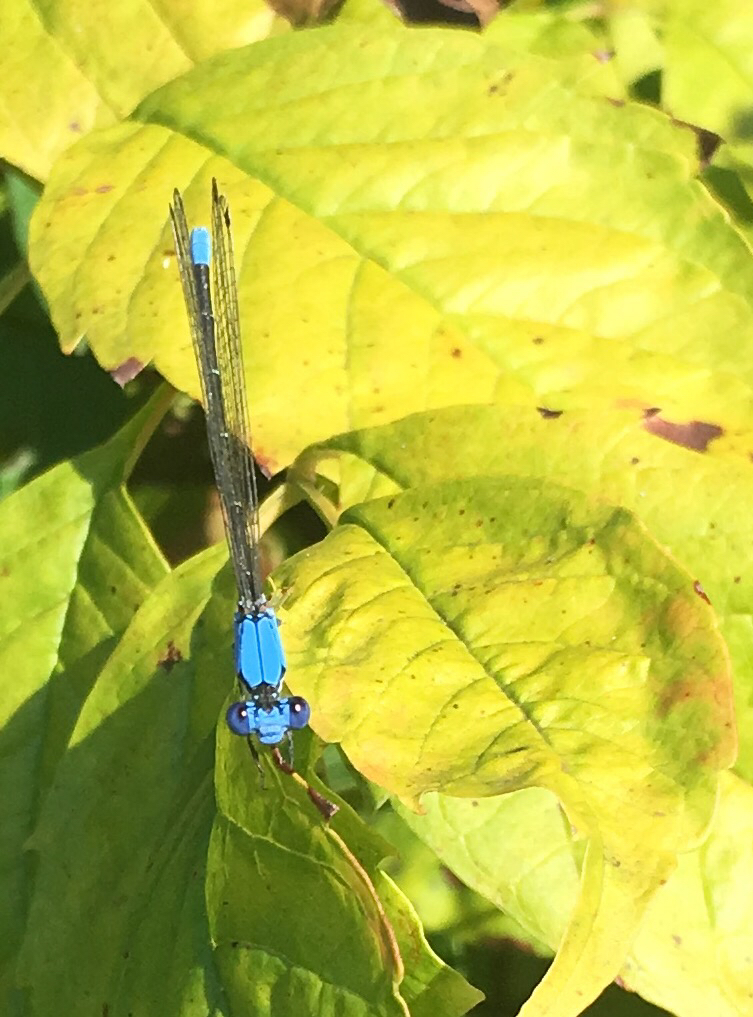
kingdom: Animalia
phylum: Arthropoda
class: Insecta
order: Odonata
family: Coenagrionidae
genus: Argia
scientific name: Argia apicalis
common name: Blue-fronted dancer
